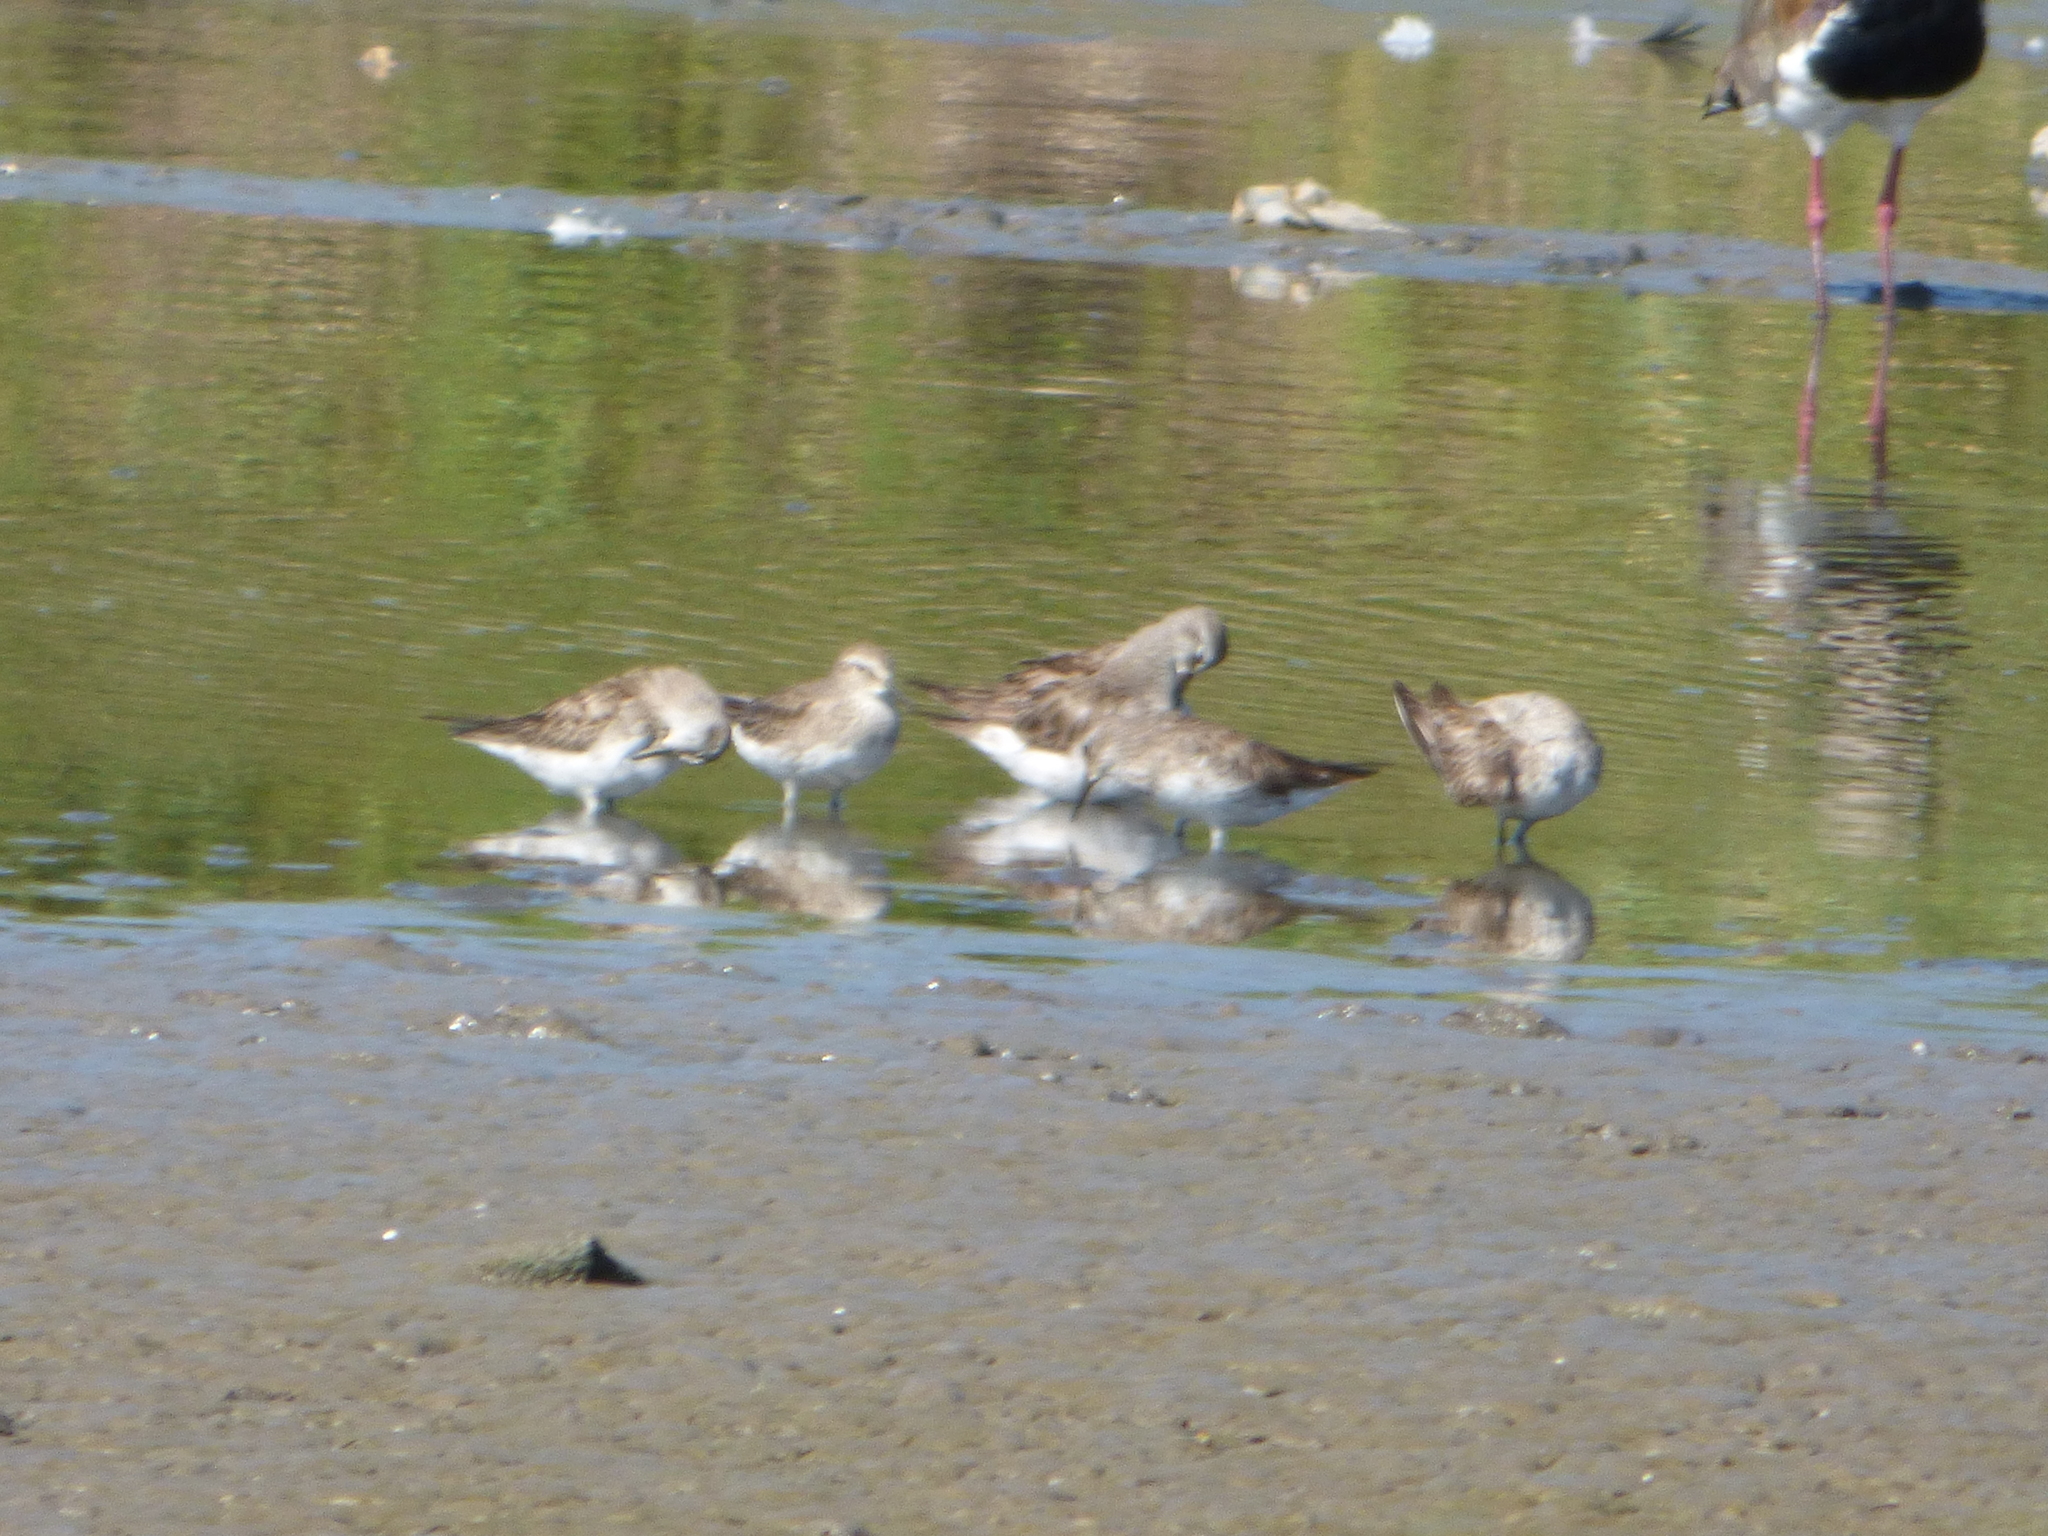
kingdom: Animalia
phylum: Chordata
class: Aves
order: Charadriiformes
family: Scolopacidae
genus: Calidris
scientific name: Calidris fuscicollis
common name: White-rumped sandpiper
